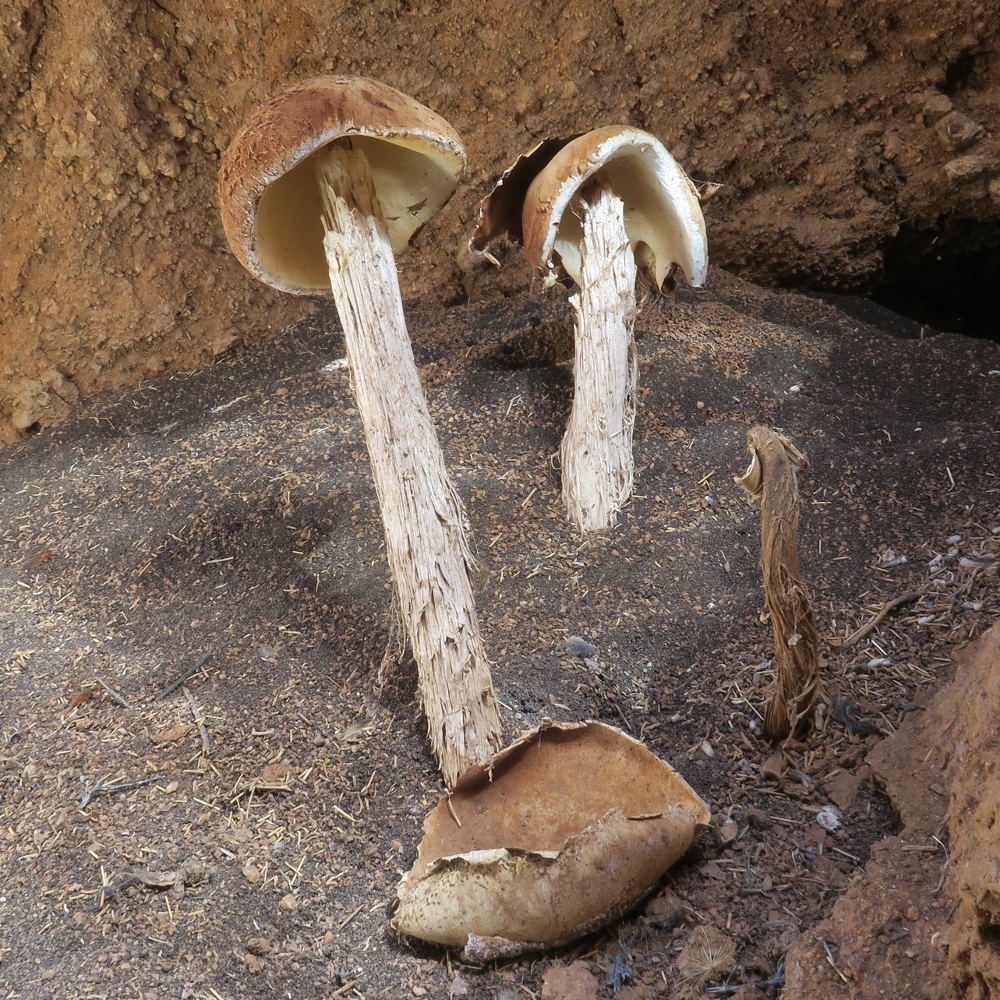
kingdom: Fungi
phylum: Basidiomycota
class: Agaricomycetes
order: Agaricales
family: Agaricaceae
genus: Battarrea
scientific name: Battarrea phalloides
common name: Sandy stiltball
